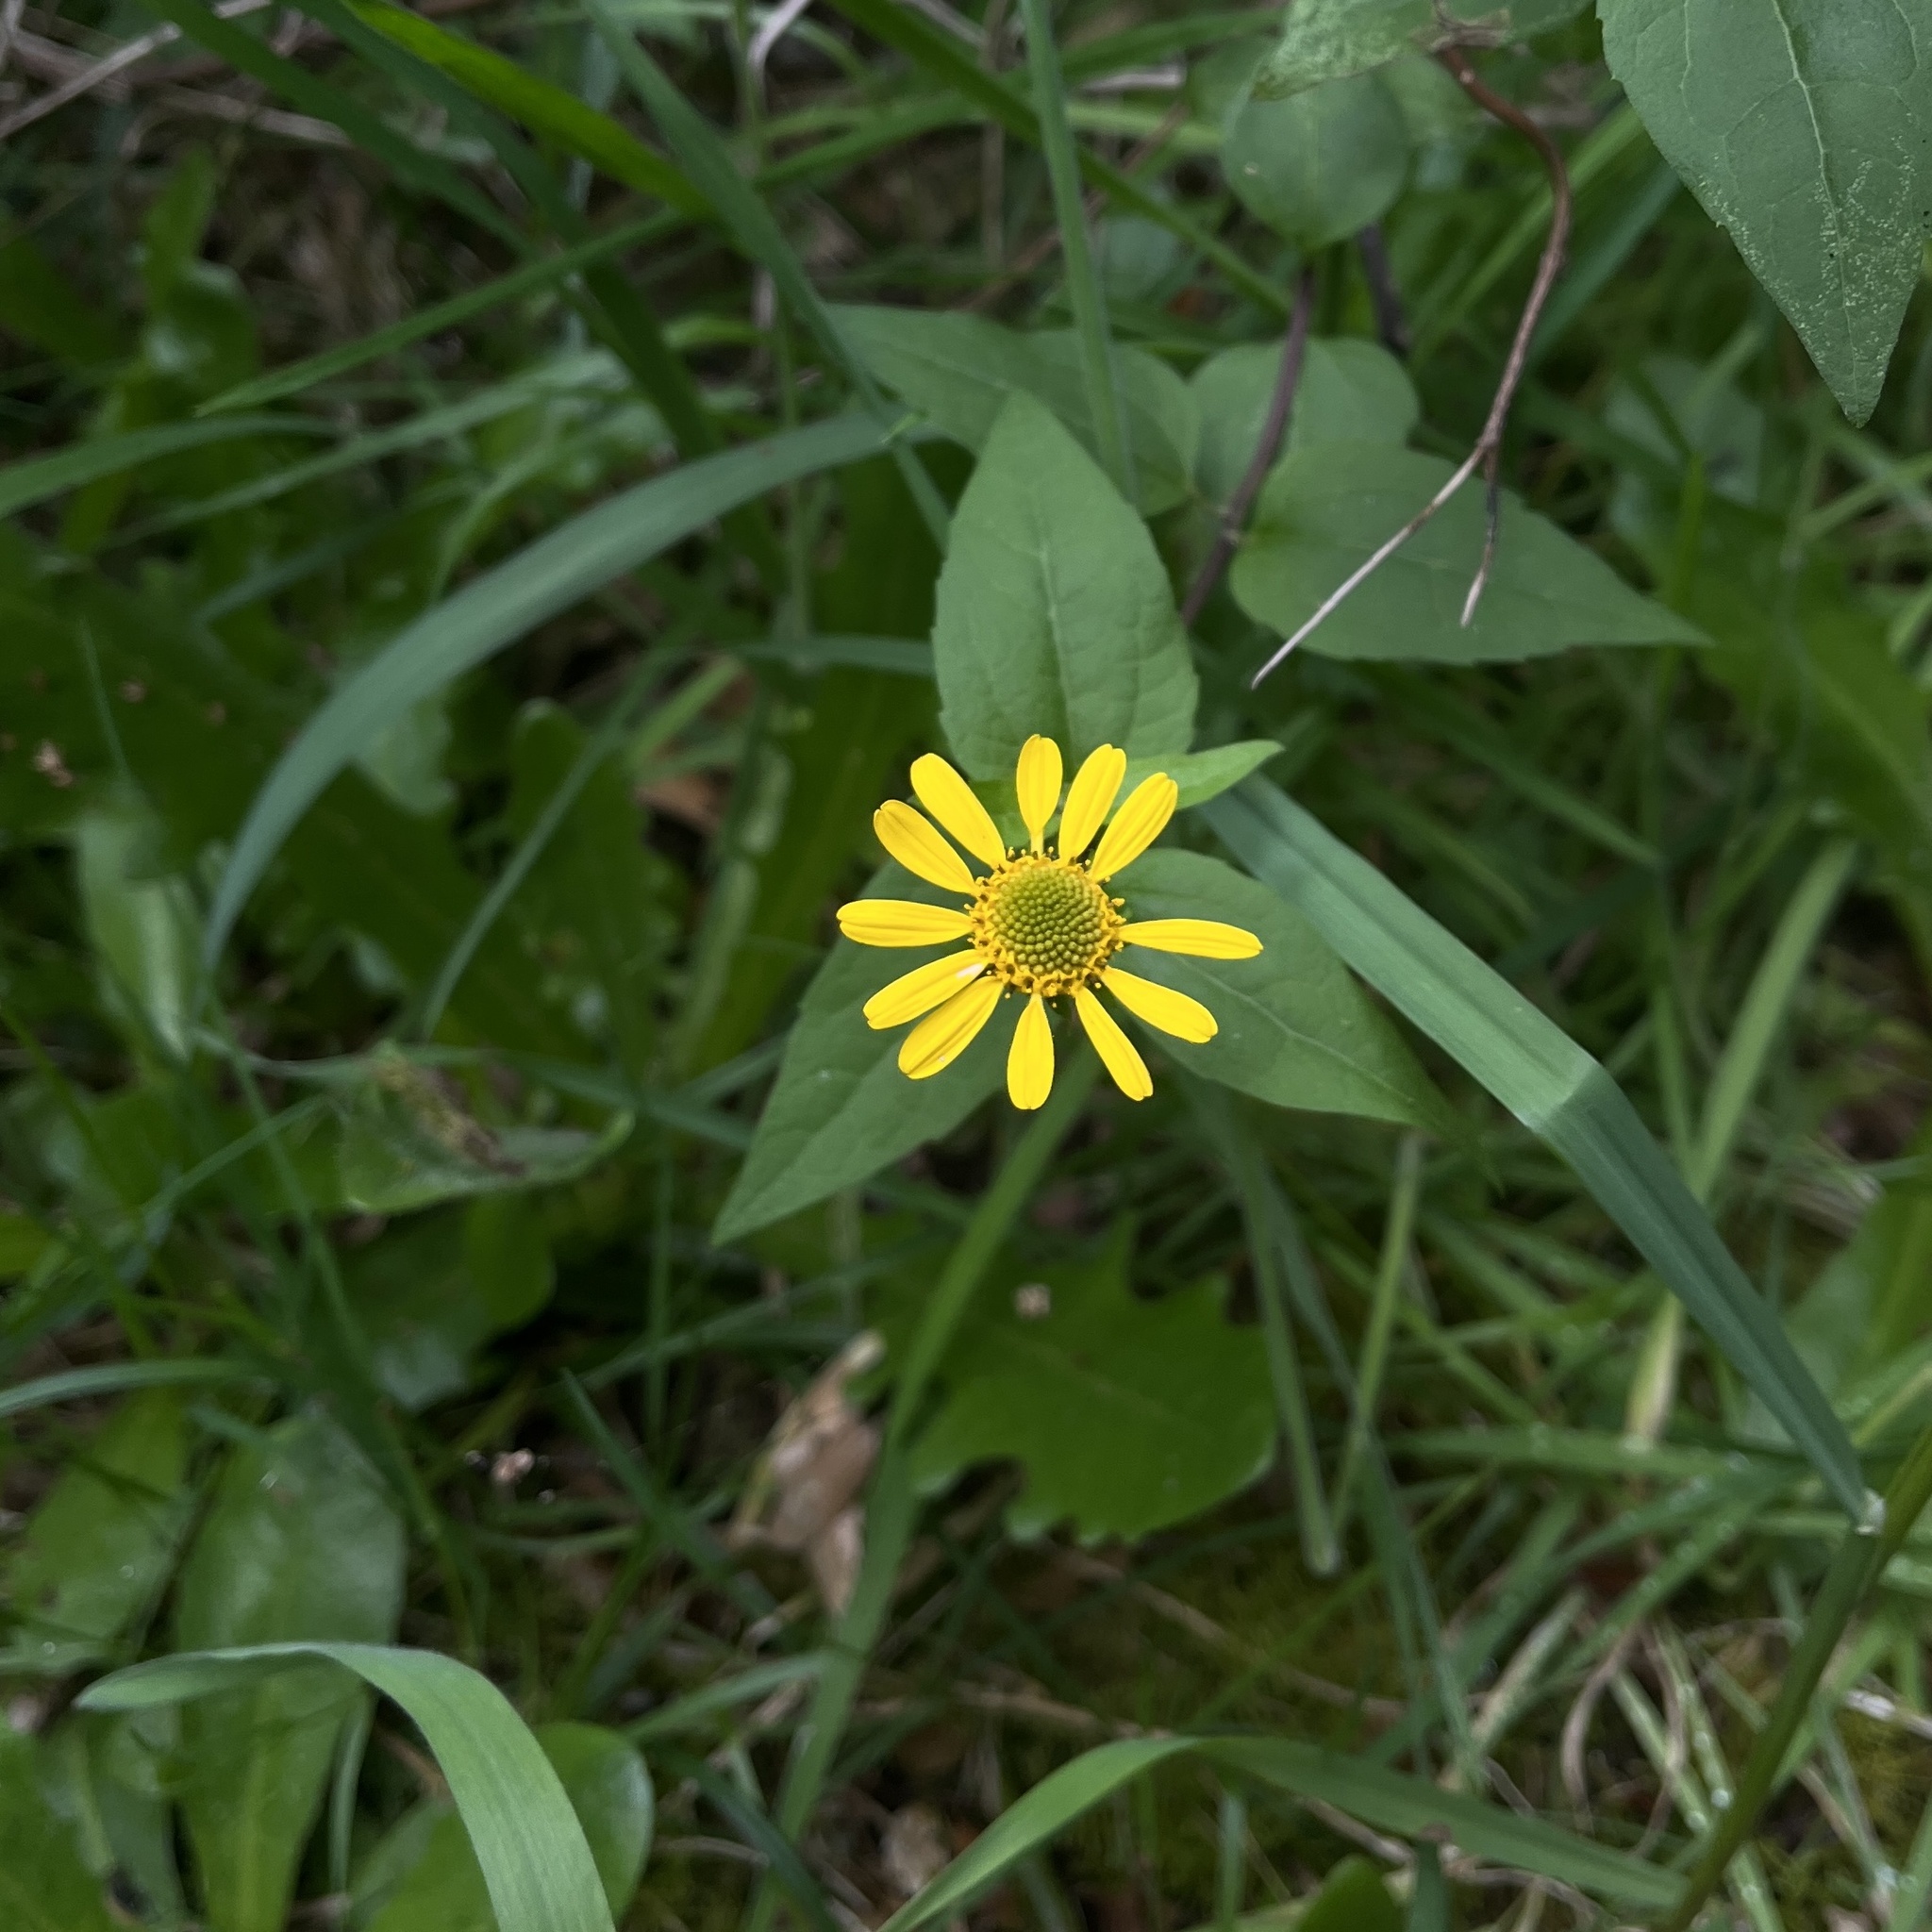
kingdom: Plantae
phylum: Tracheophyta
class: Magnoliopsida
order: Asterales
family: Asteraceae
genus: Leptocarpha
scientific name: Leptocarpha rivularis
